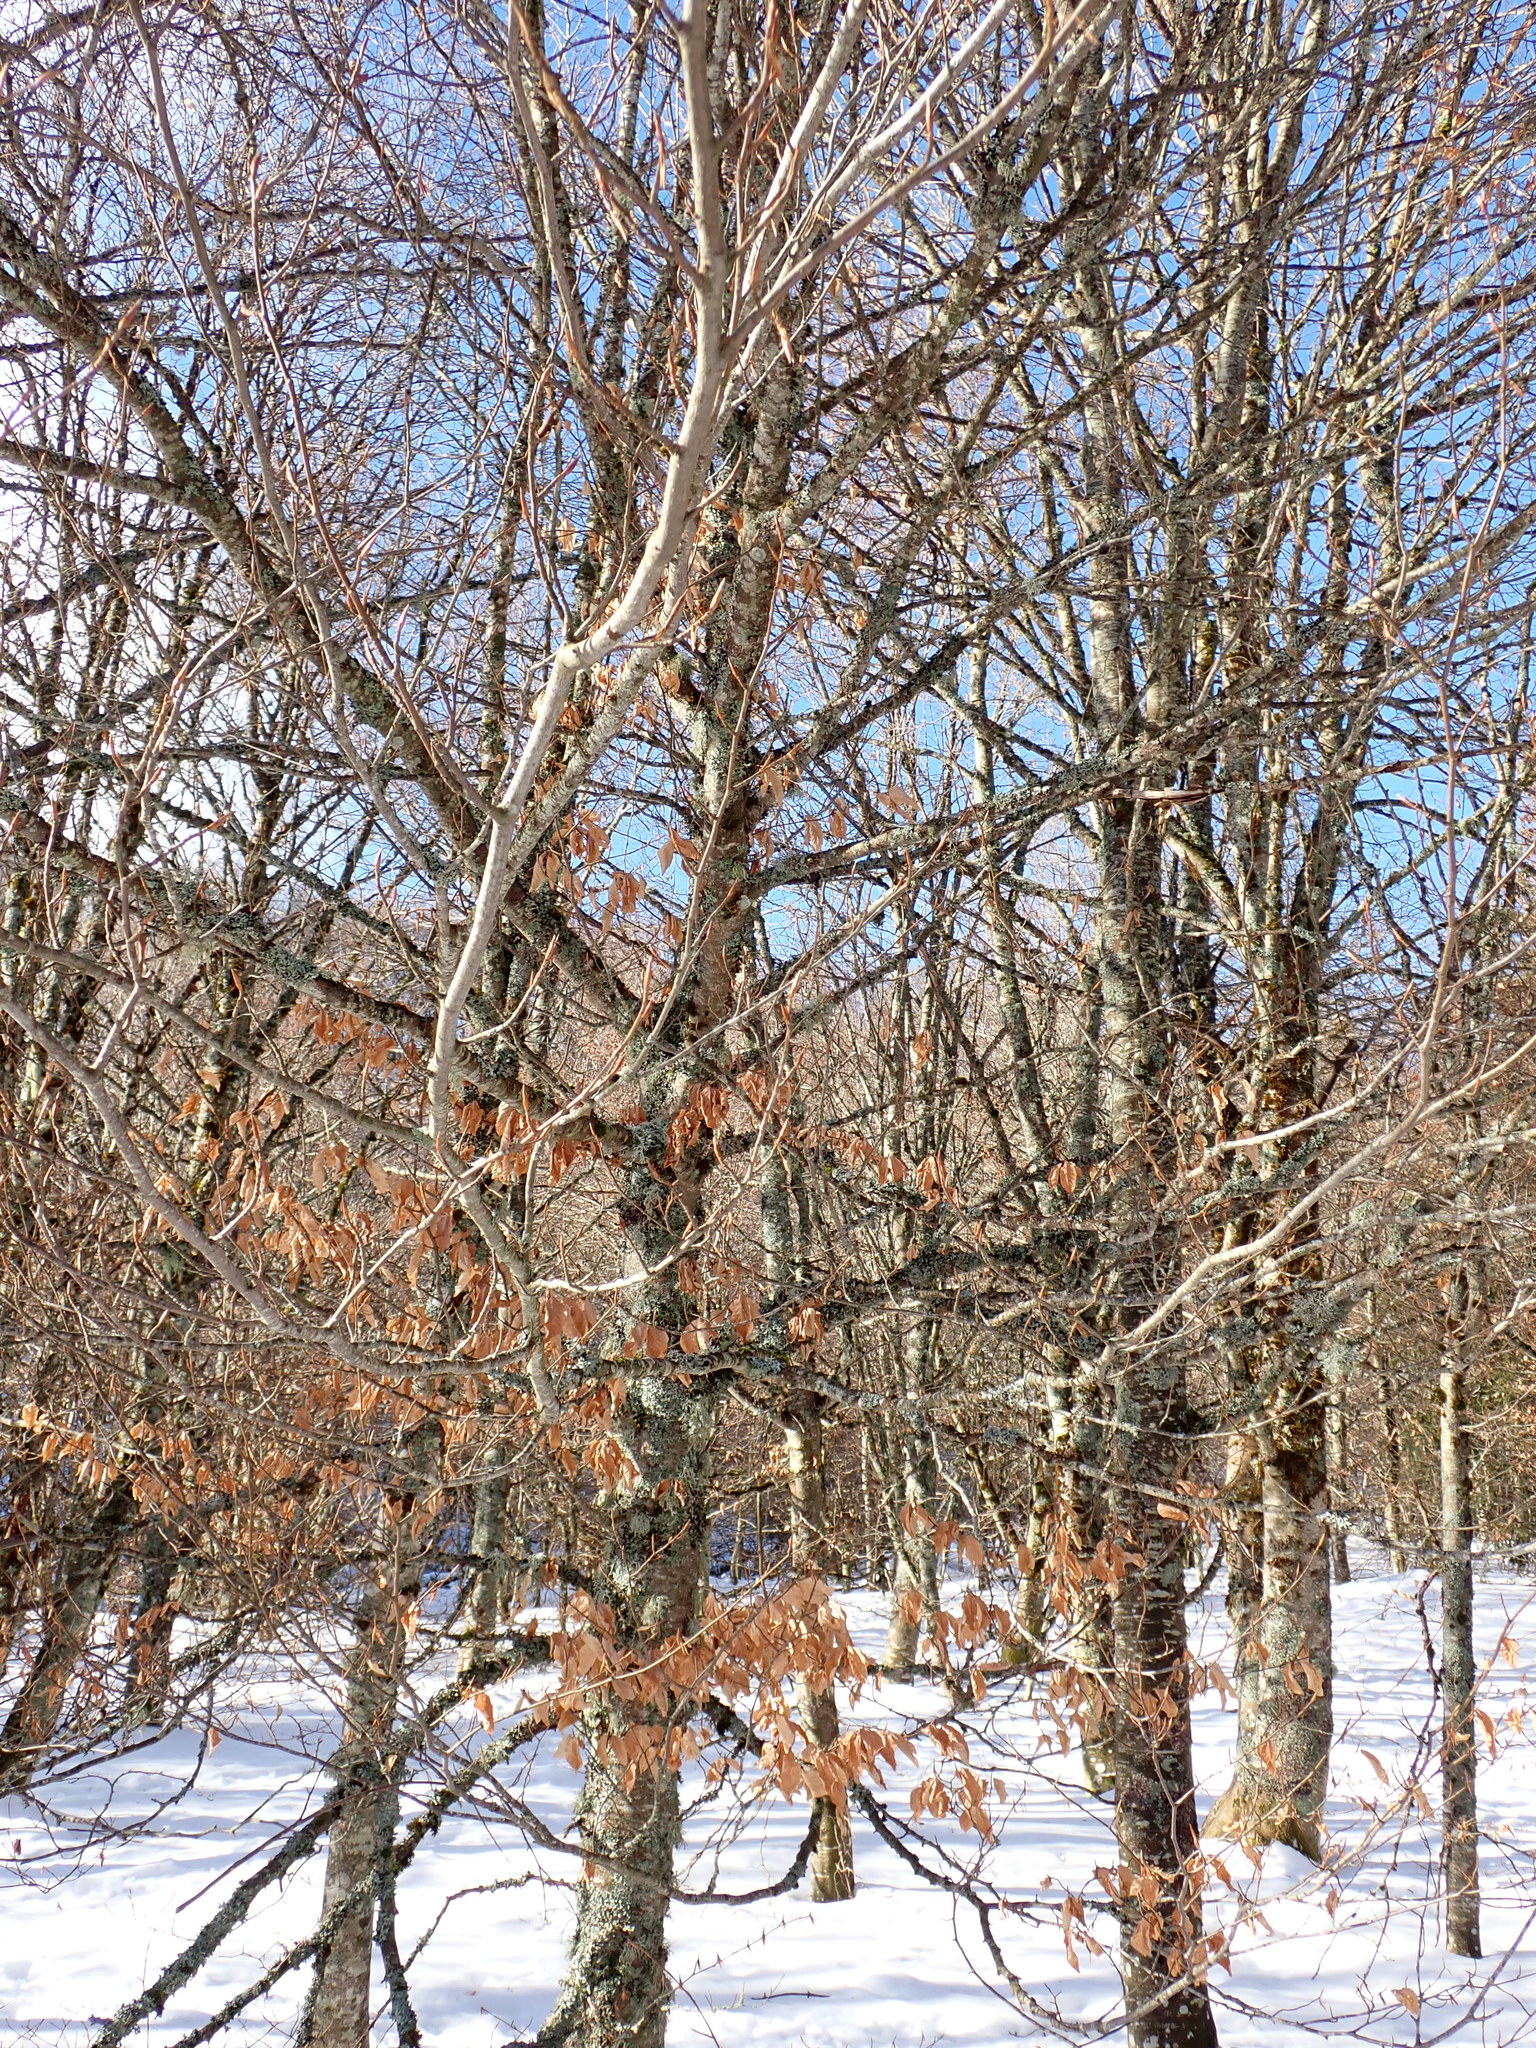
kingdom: Plantae
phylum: Tracheophyta
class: Magnoliopsida
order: Fagales
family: Fagaceae
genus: Fagus
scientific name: Fagus sylvatica
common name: Beech
